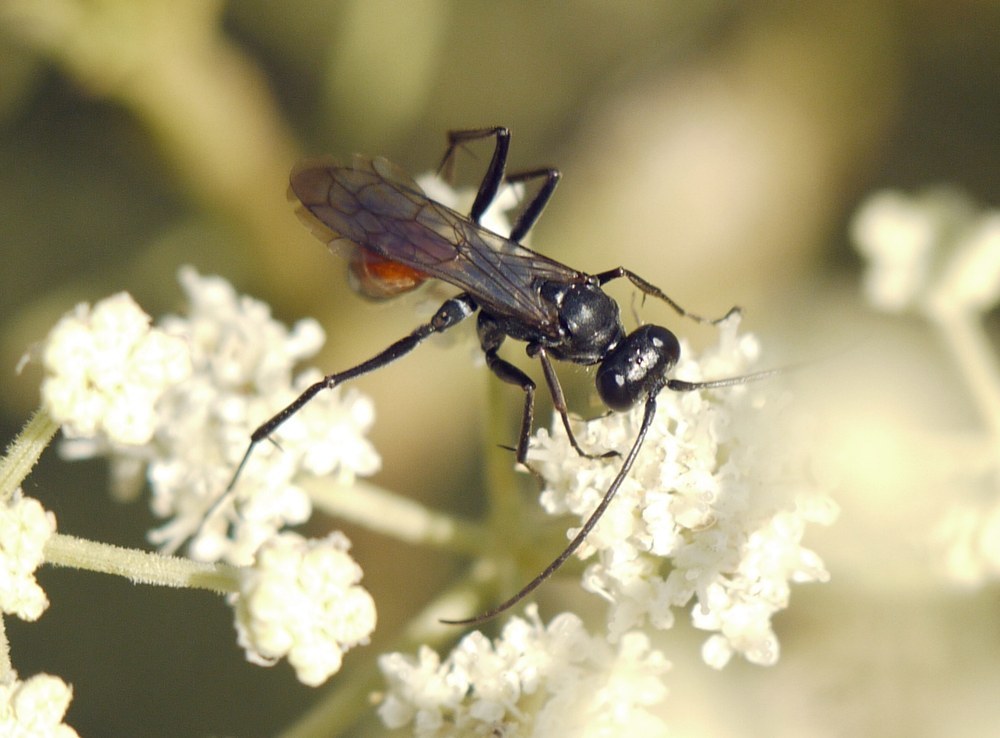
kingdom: Animalia
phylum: Arthropoda
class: Insecta
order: Hymenoptera
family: Pompilidae
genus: Auplopus
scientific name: Auplopus rectus
